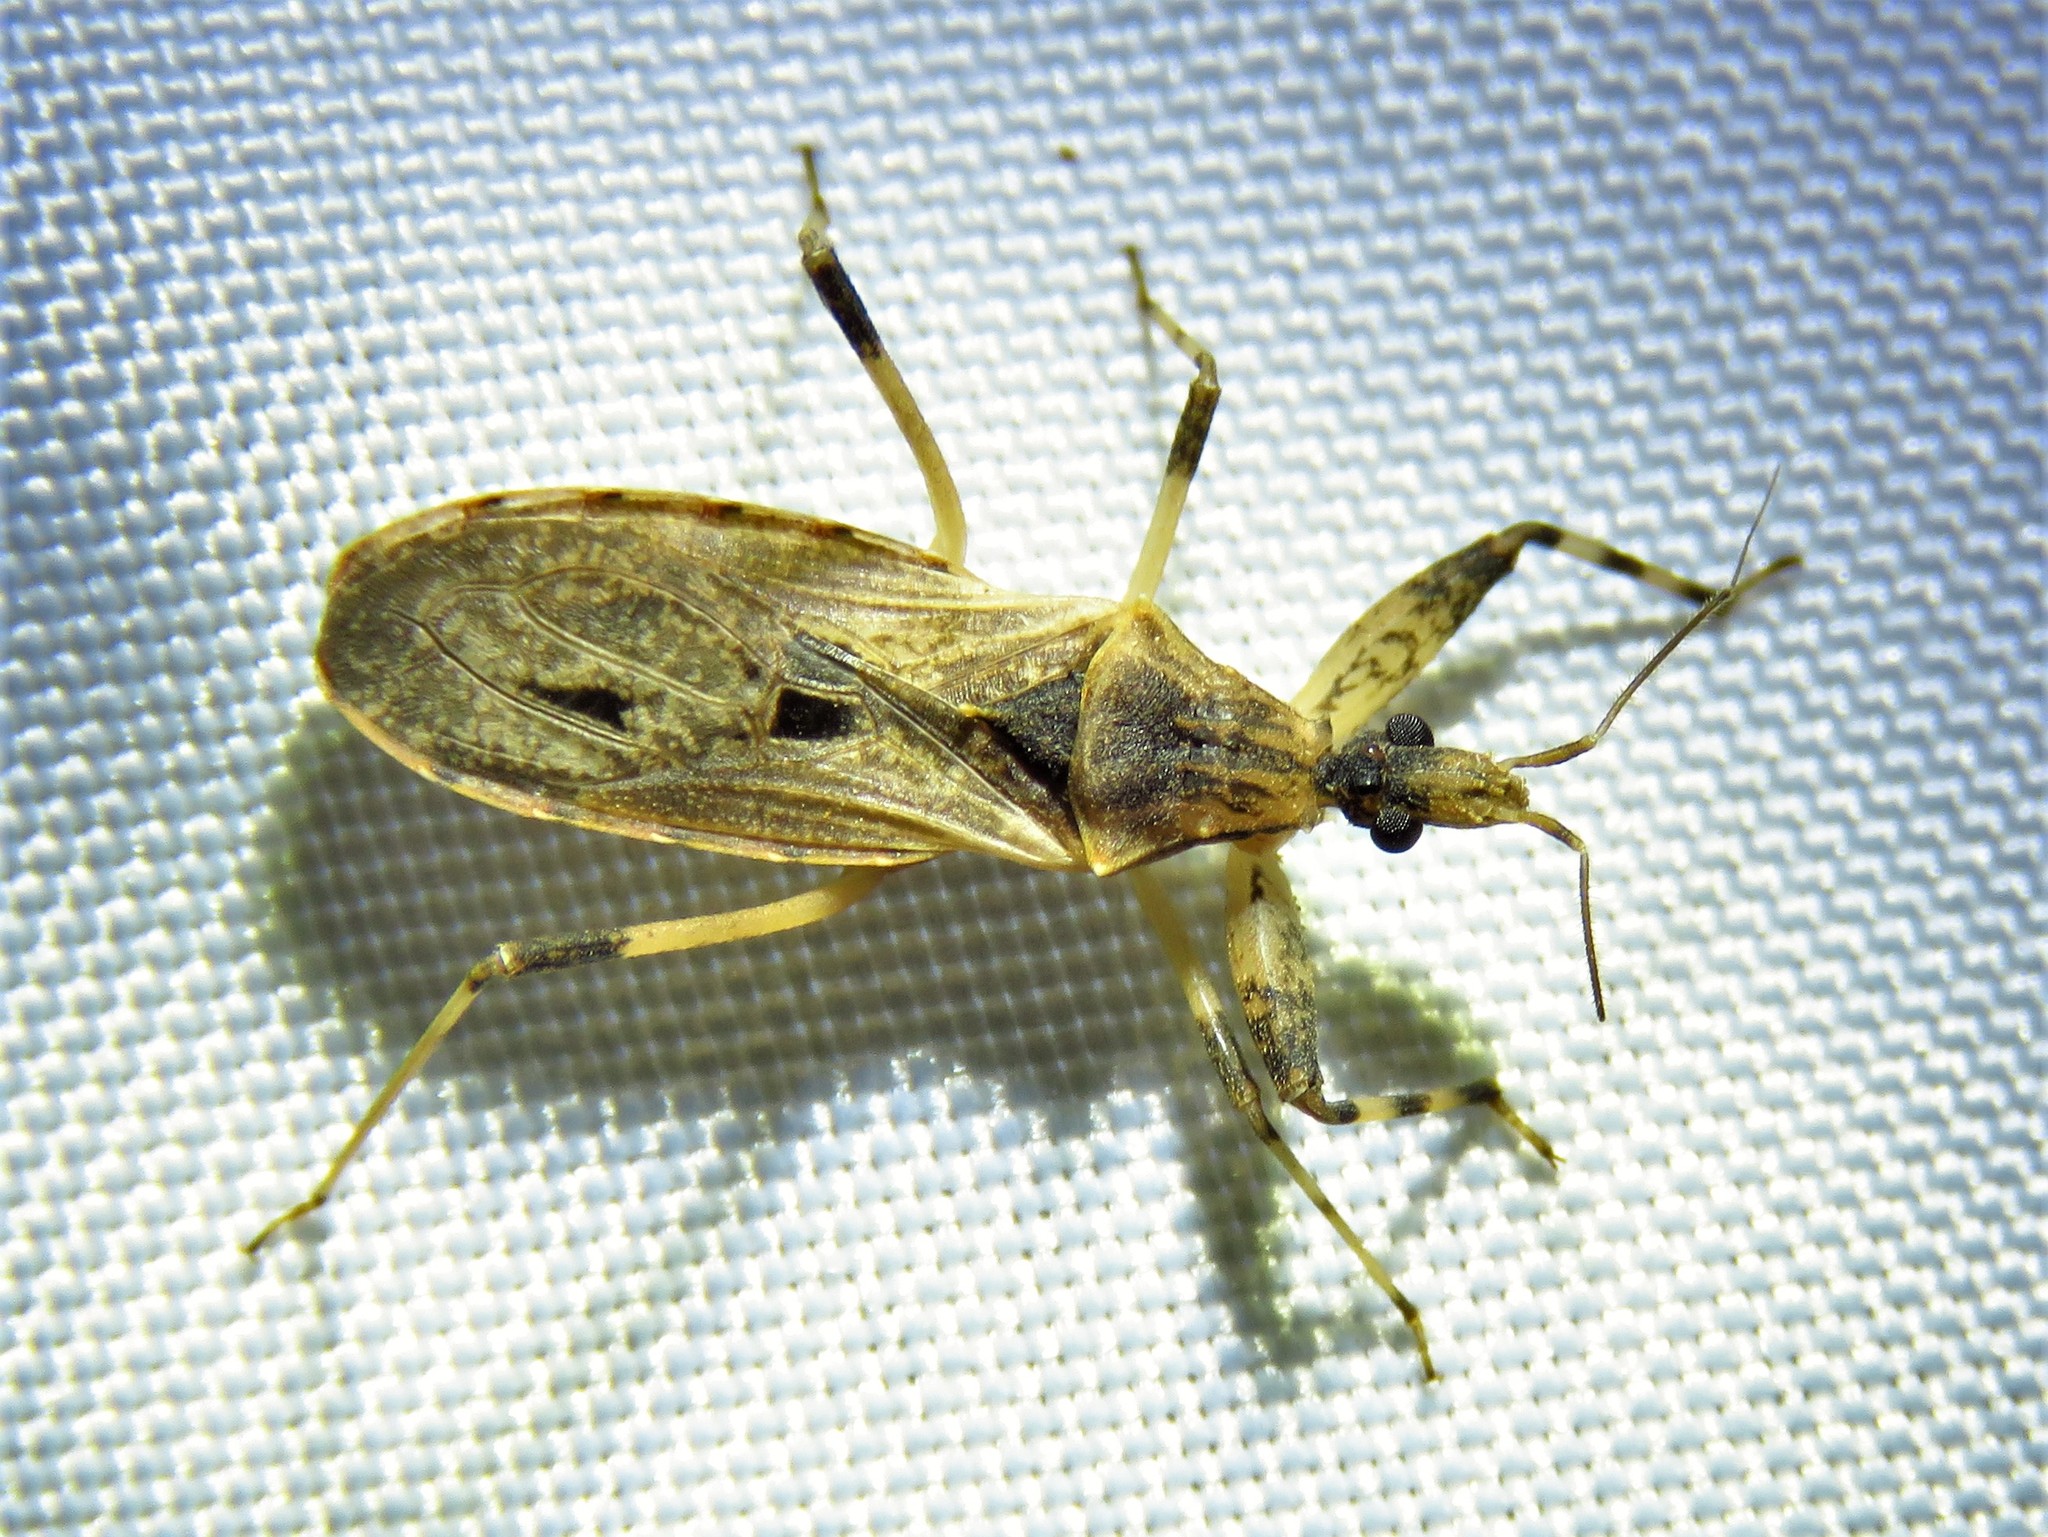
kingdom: Animalia
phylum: Arthropoda
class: Insecta
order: Hemiptera
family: Reduviidae
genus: Oncocephalus
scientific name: Oncocephalus geniculatus
